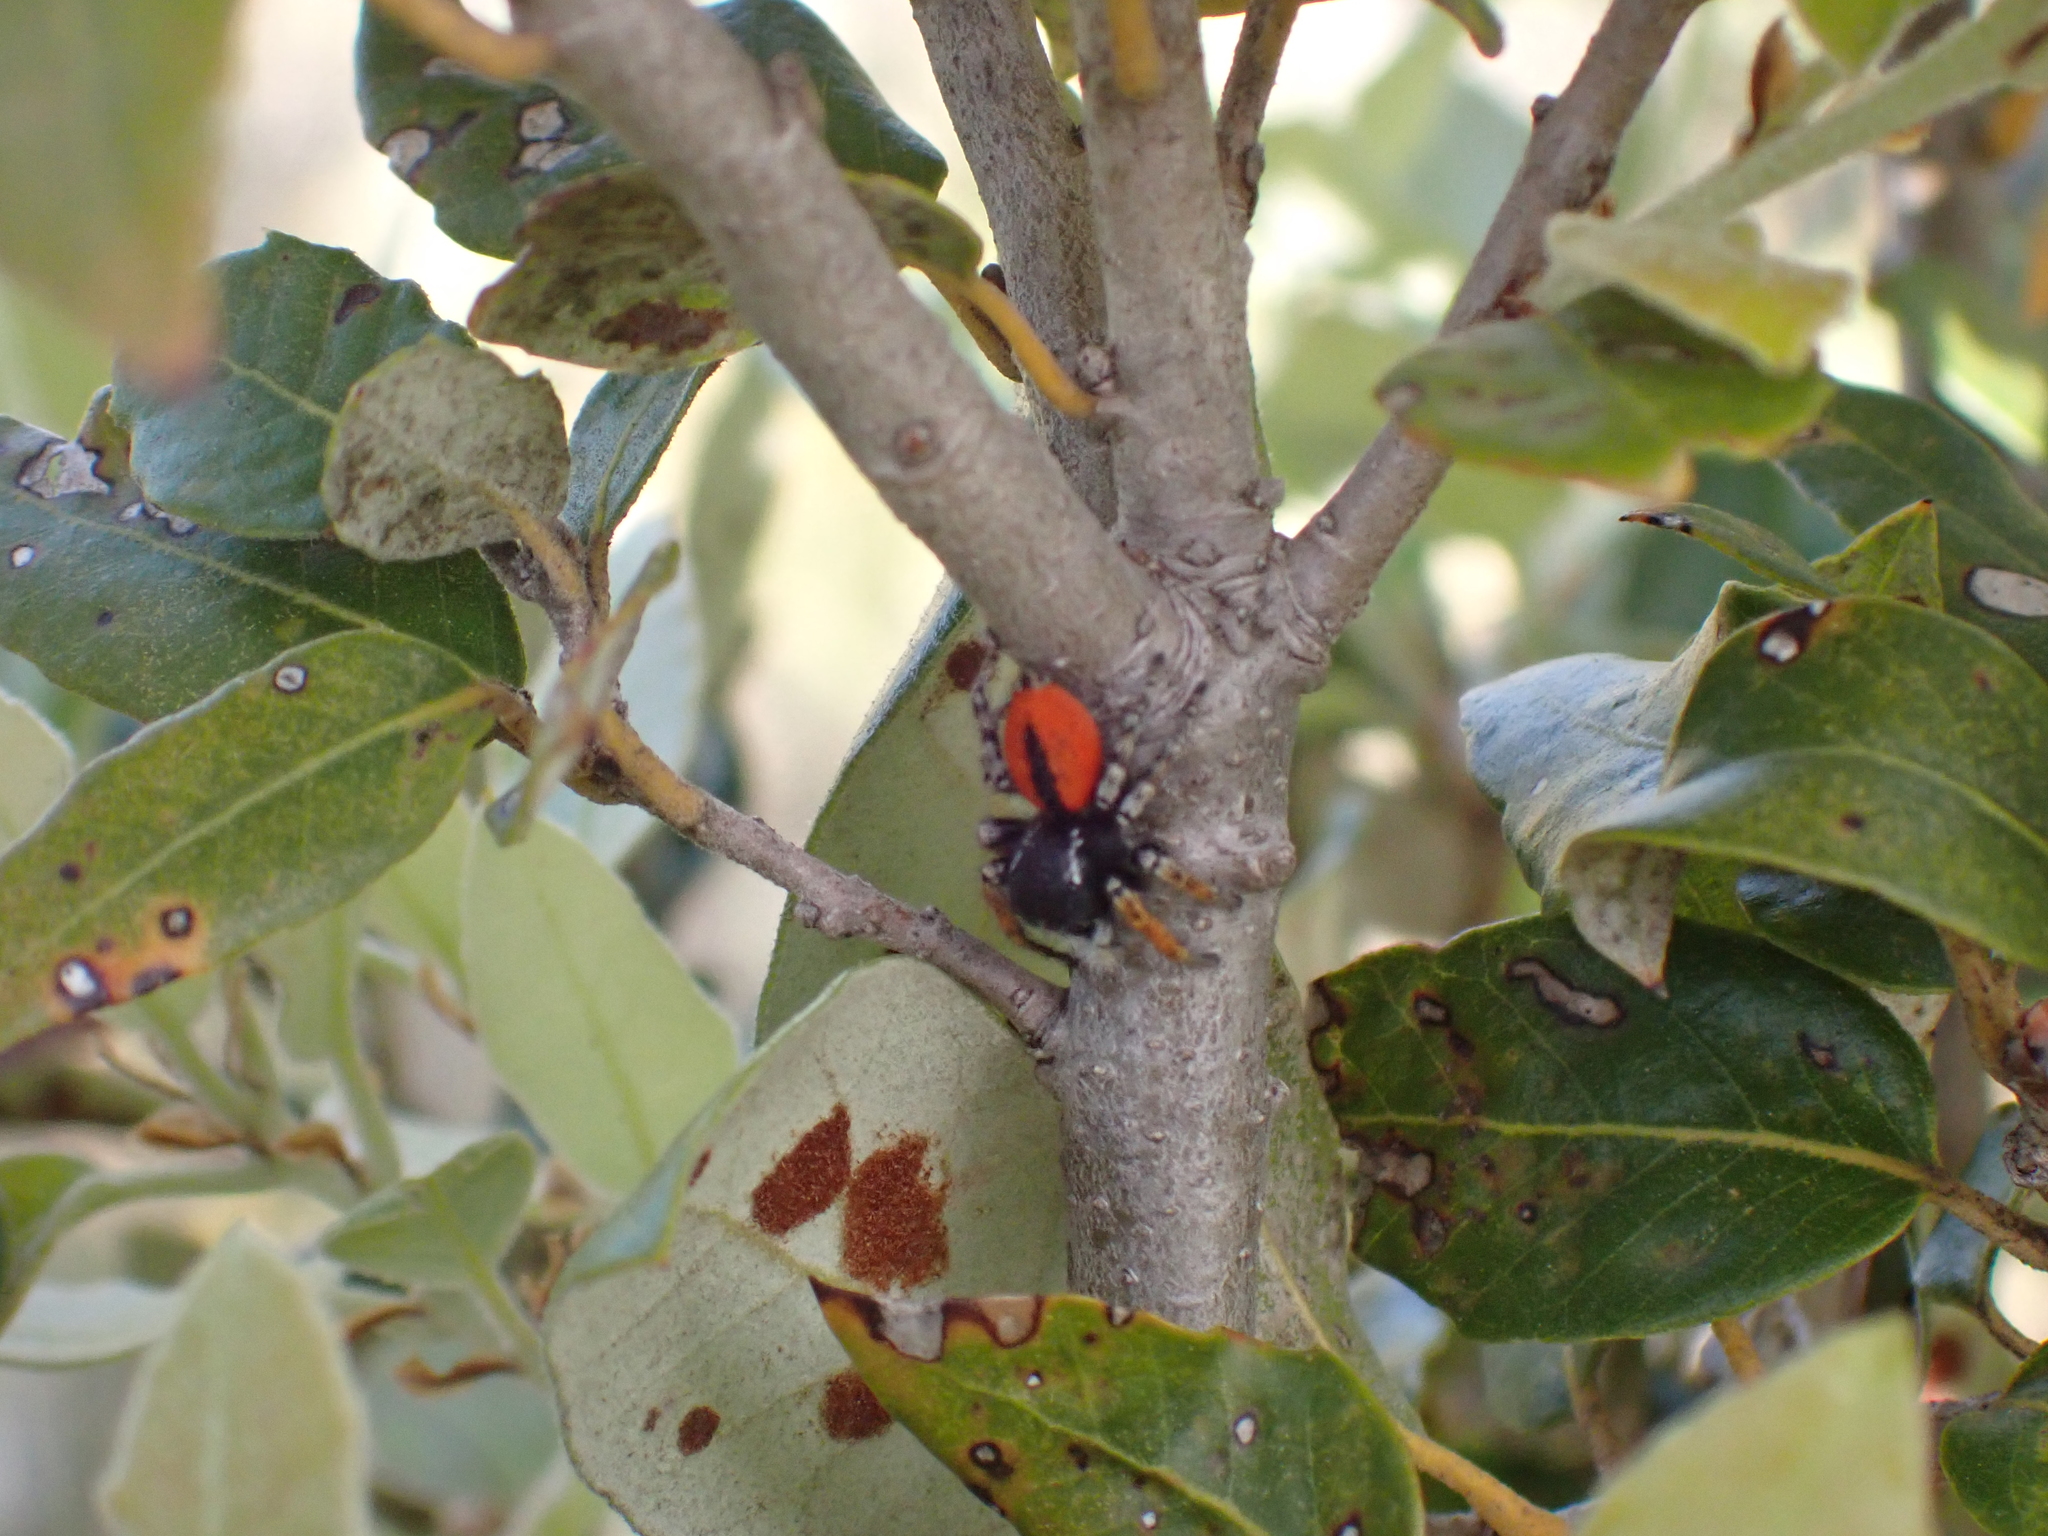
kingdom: Animalia
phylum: Arthropoda
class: Arachnida
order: Araneae
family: Salticidae
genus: Philaeus
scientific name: Philaeus chrysops
